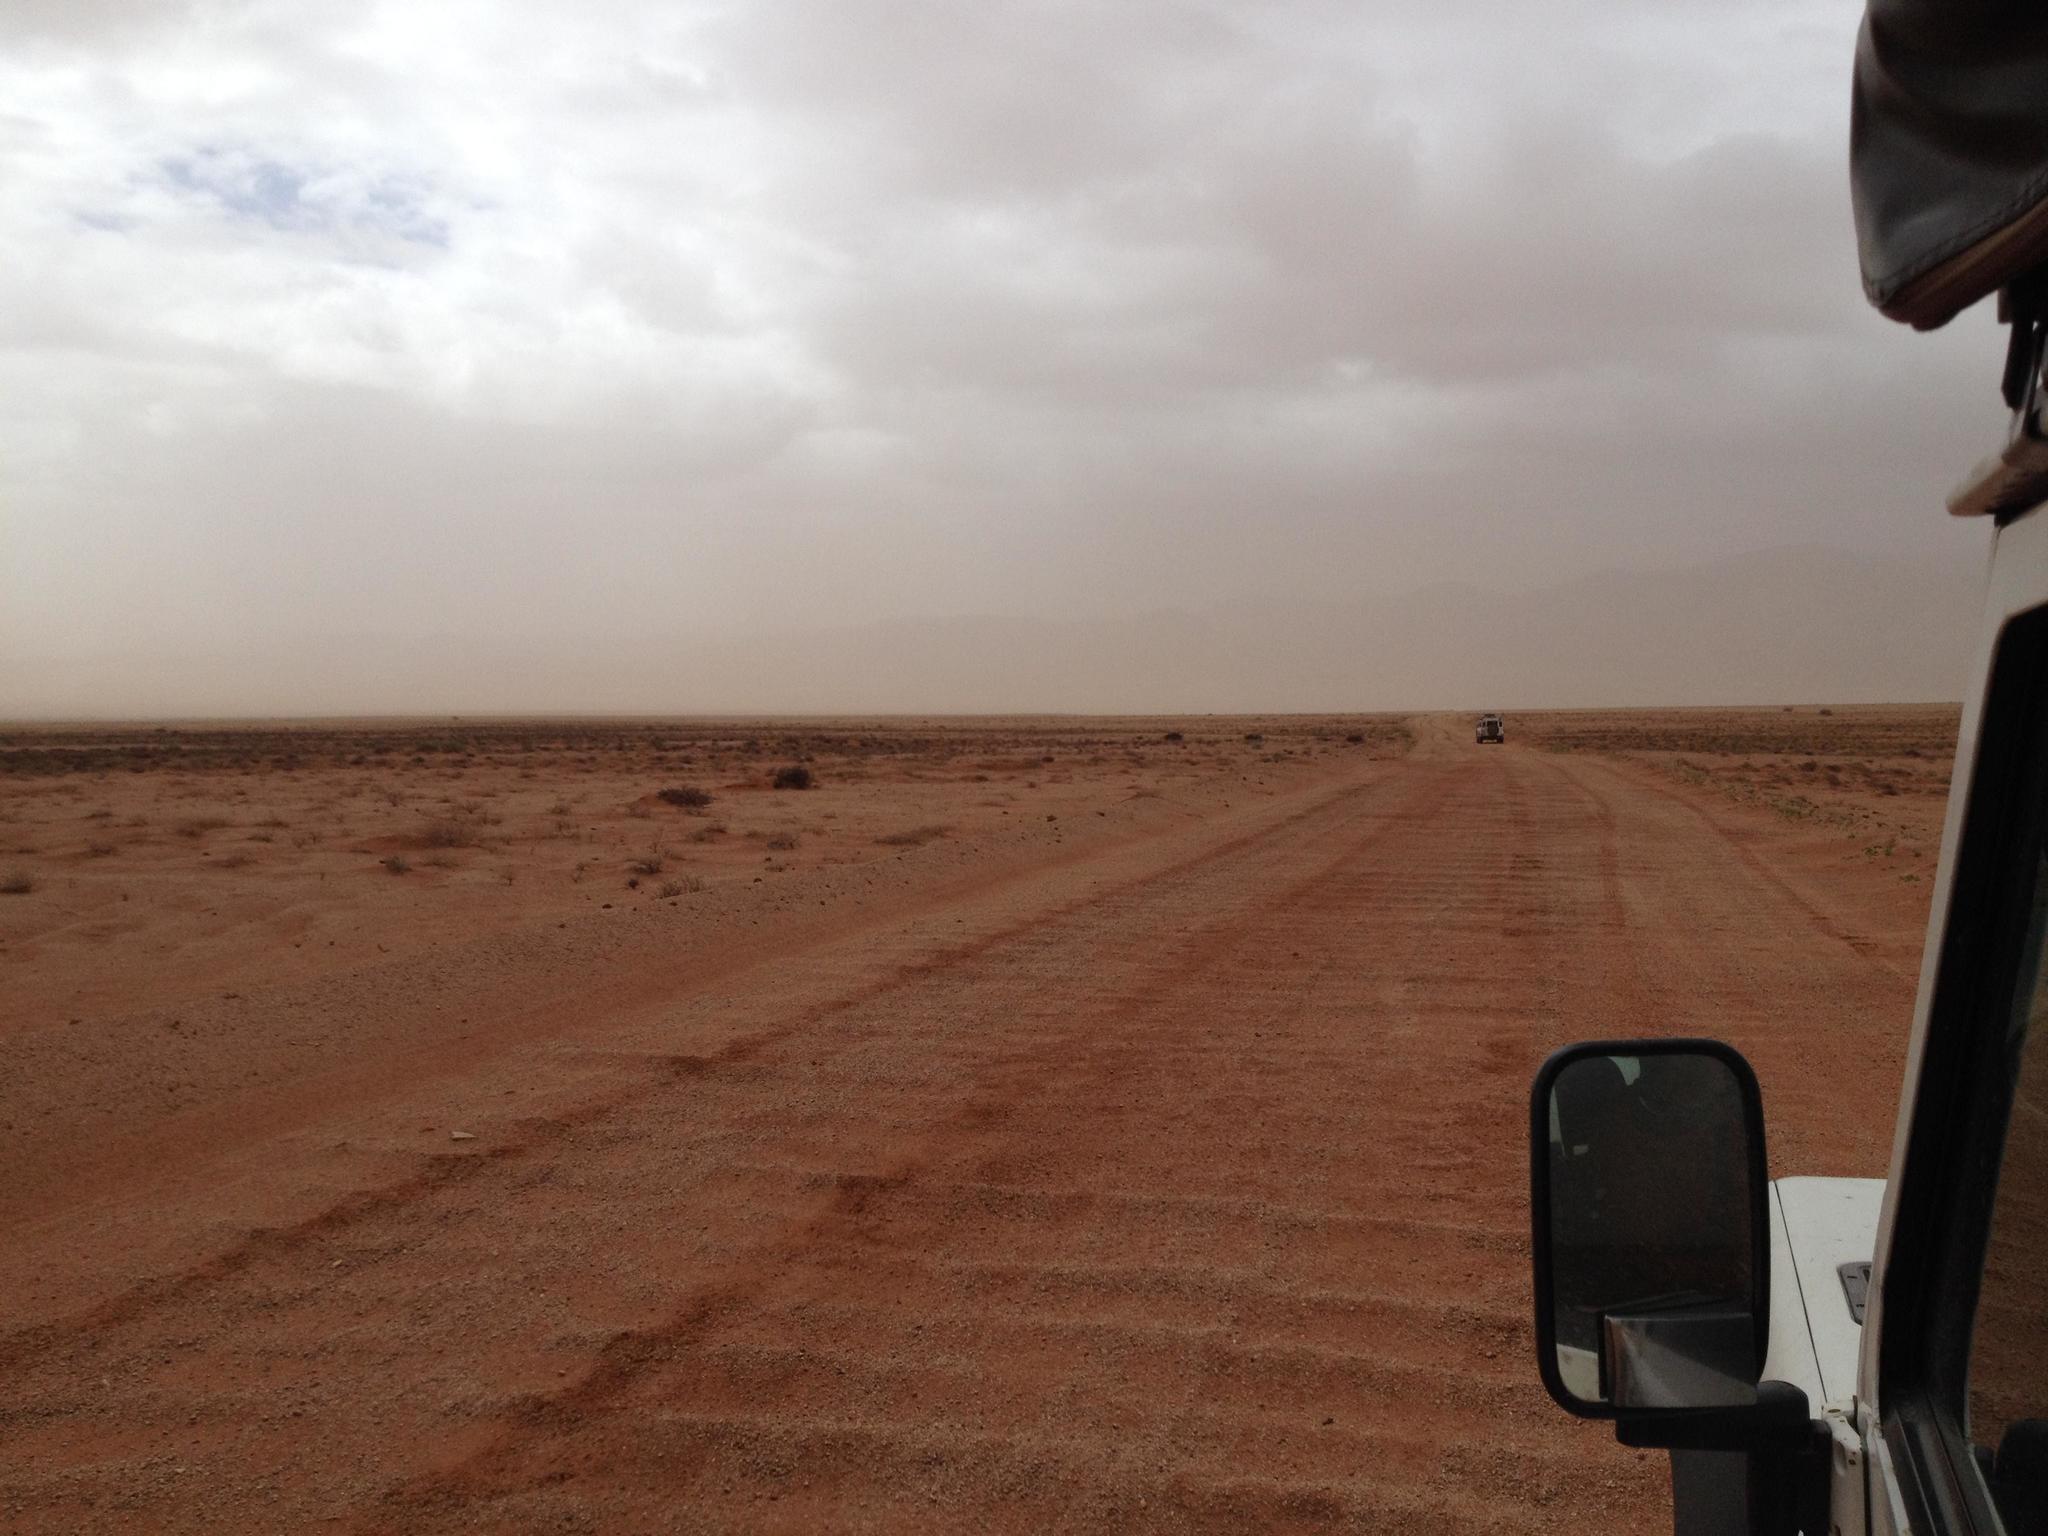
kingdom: Plantae
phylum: Tracheophyta
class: Magnoliopsida
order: Brassicales
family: Brassicaceae
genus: Heliophila
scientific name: Heliophila deserticola
